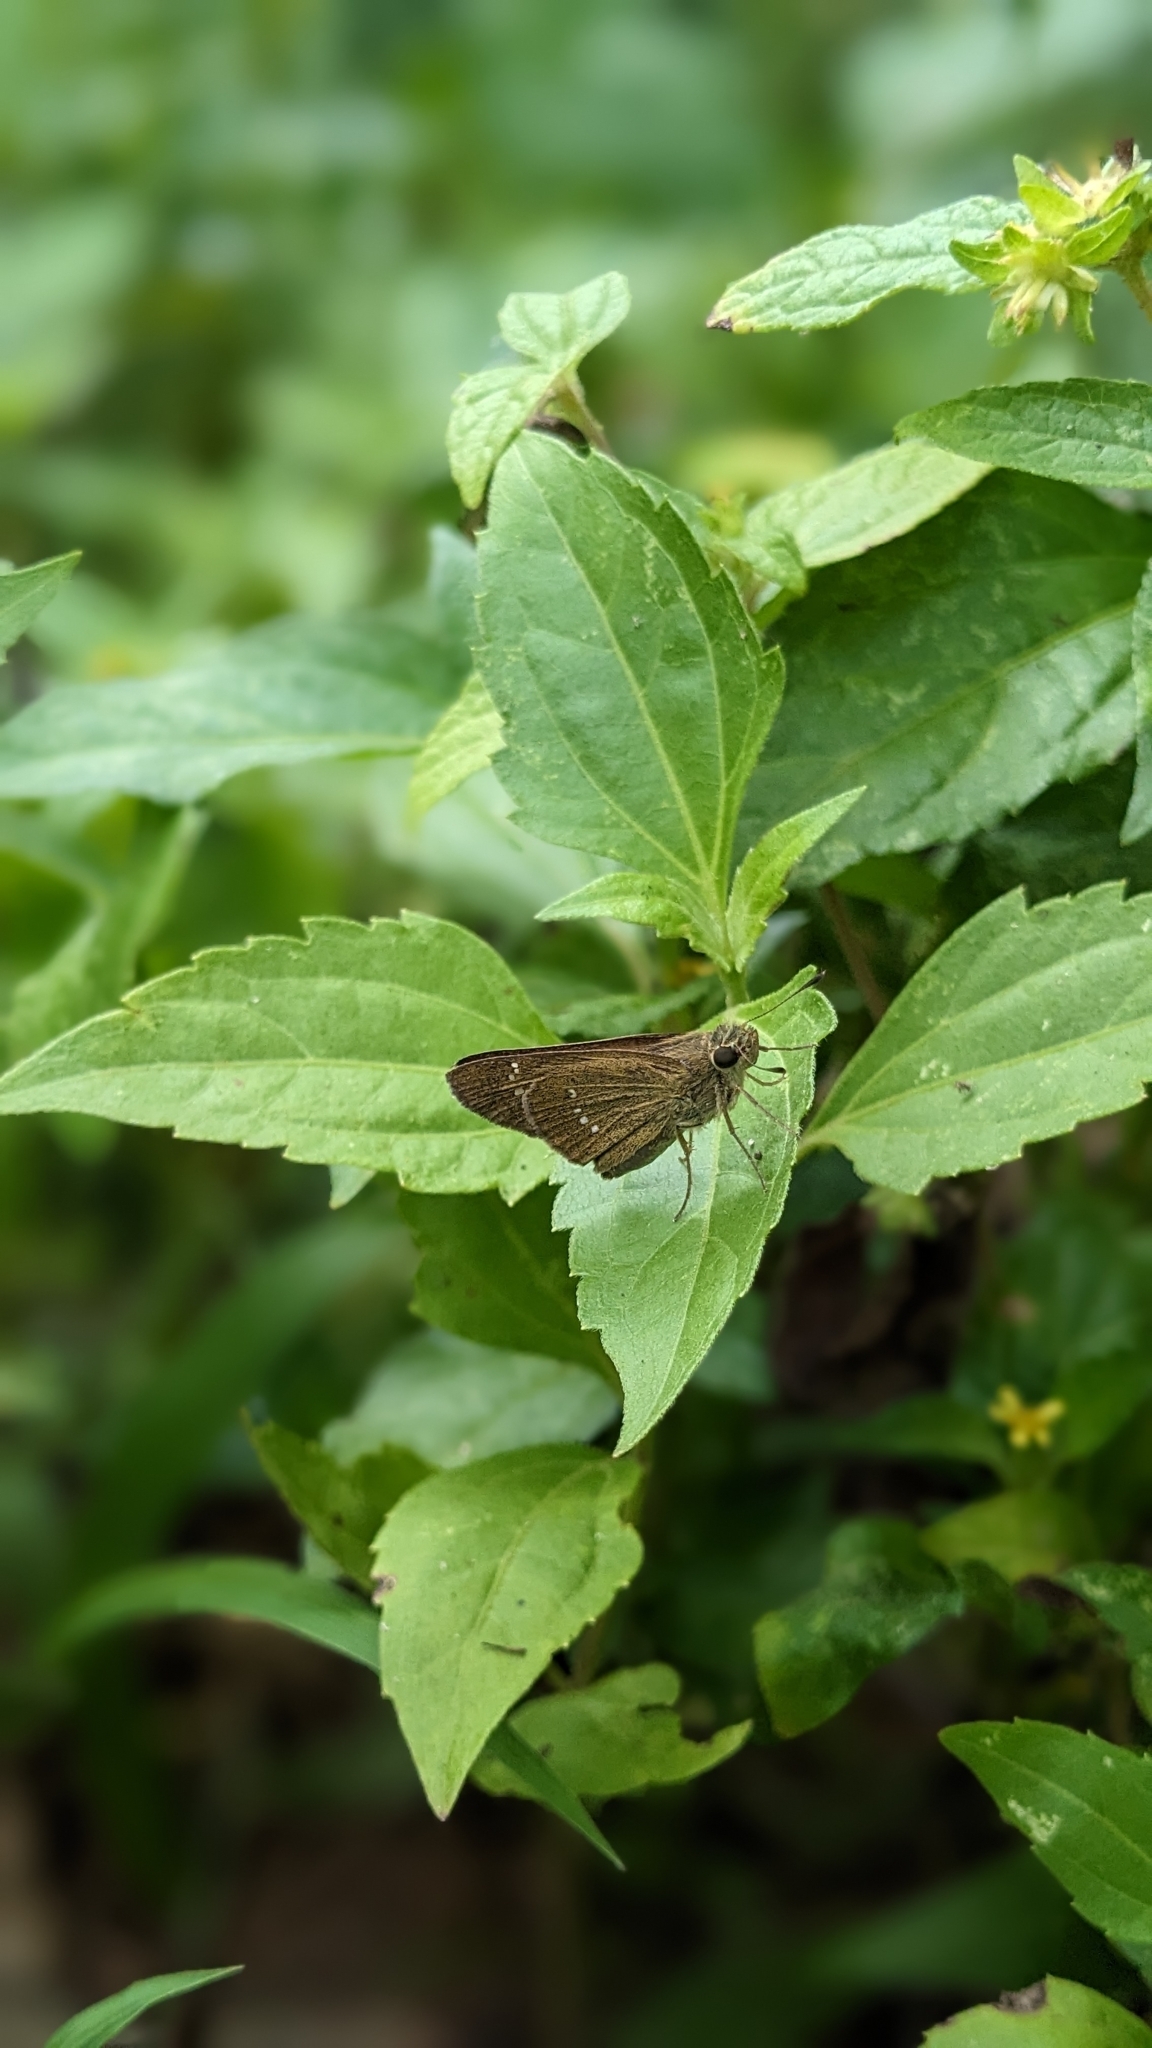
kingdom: Animalia
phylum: Arthropoda
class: Insecta
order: Lepidoptera
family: Hesperiidae
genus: Borbo
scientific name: Borbo cinnara
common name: Formosan swift
